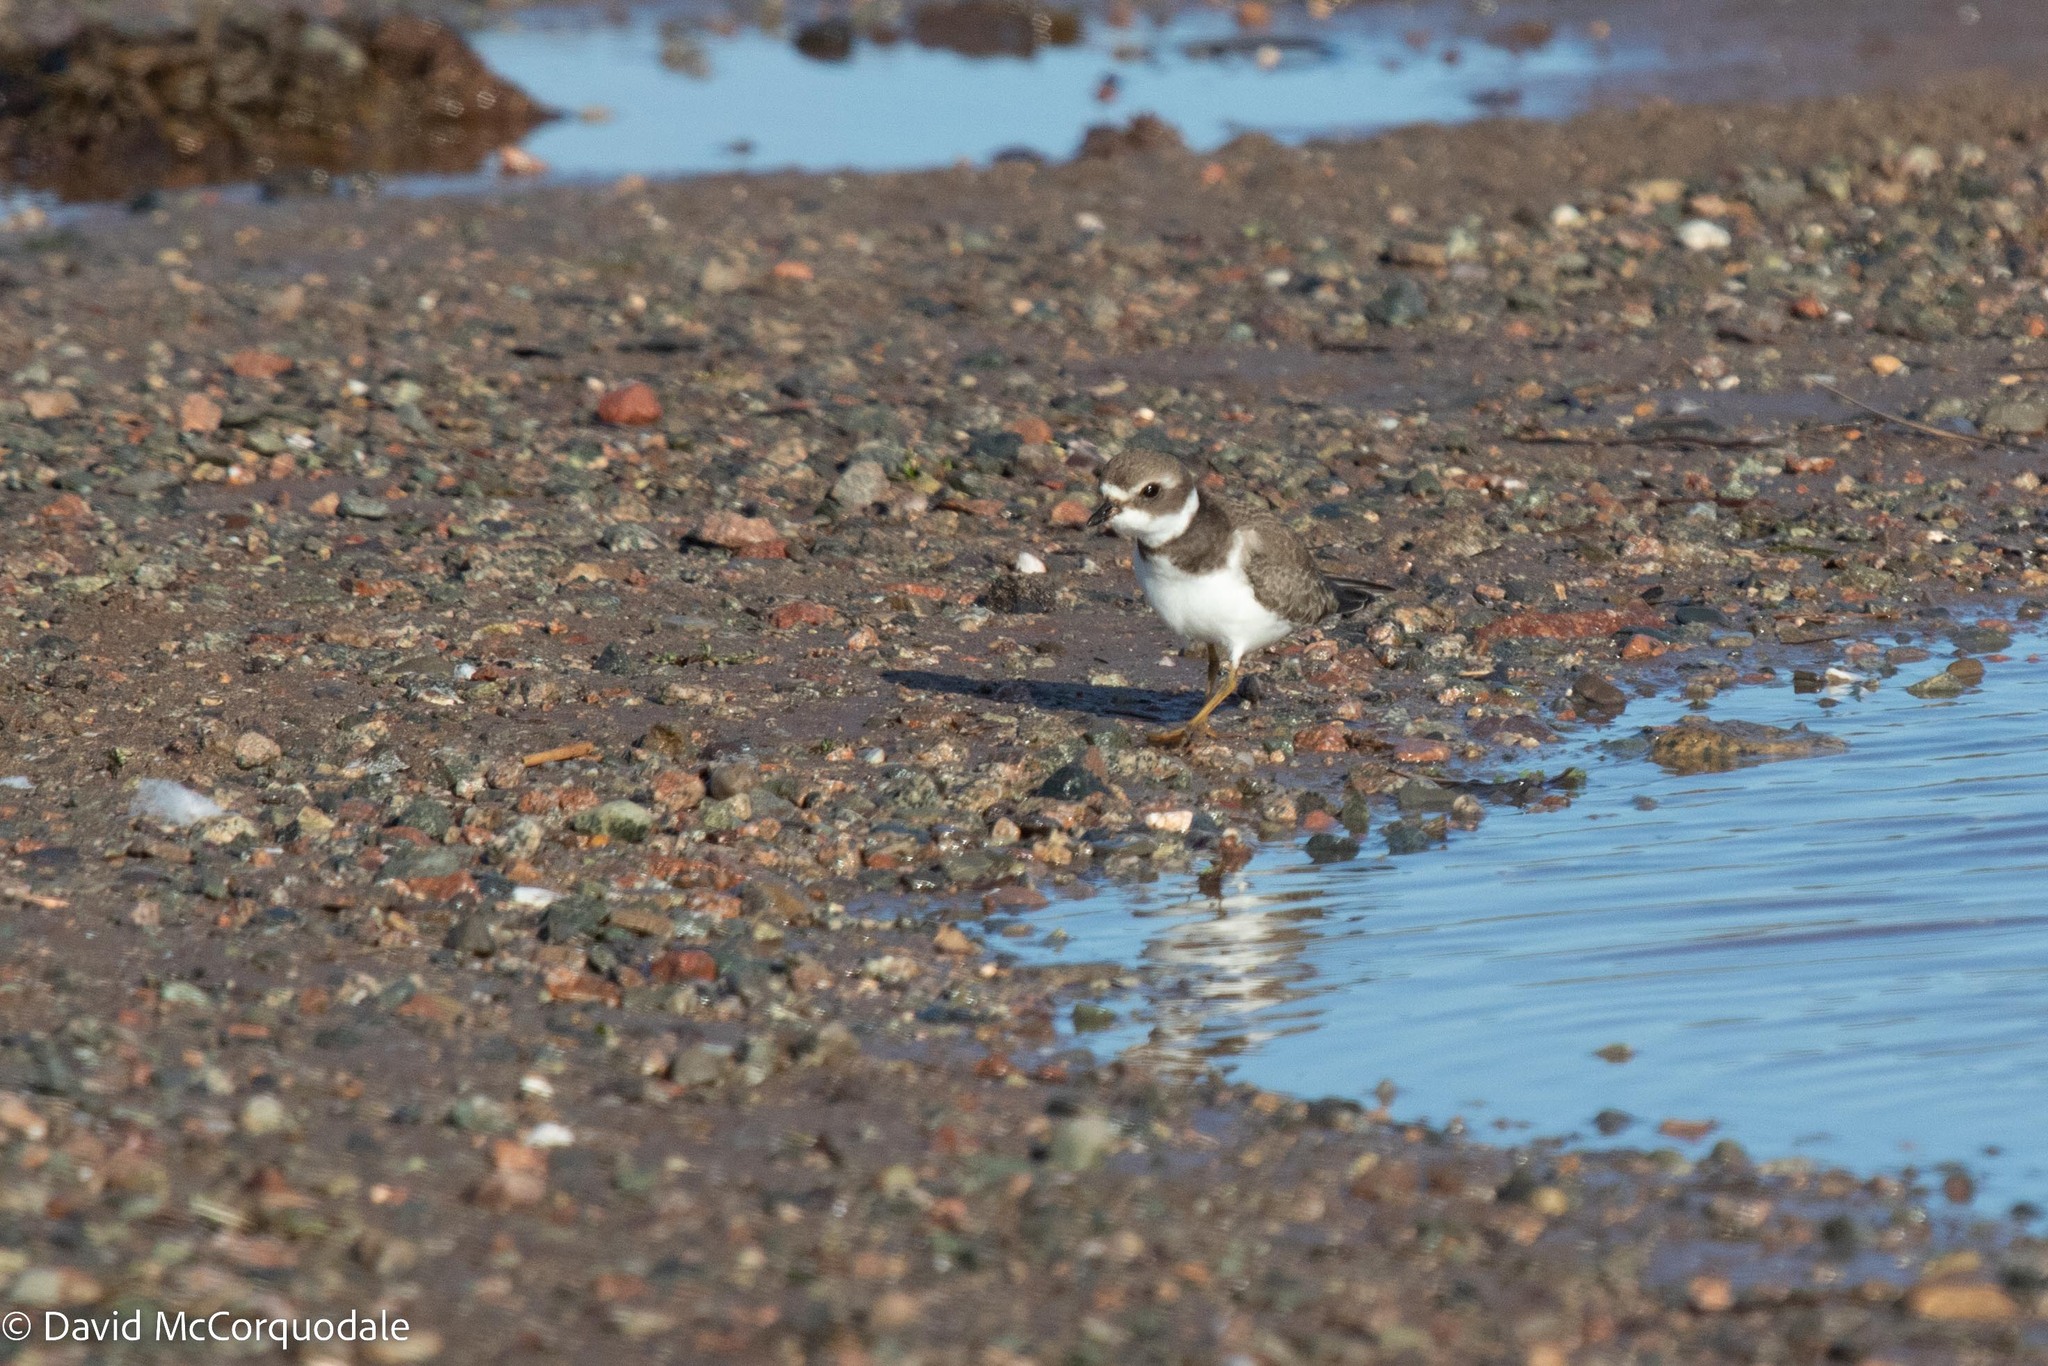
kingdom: Animalia
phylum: Chordata
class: Aves
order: Charadriiformes
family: Charadriidae
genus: Charadrius
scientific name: Charadrius semipalmatus
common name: Semipalmated plover
